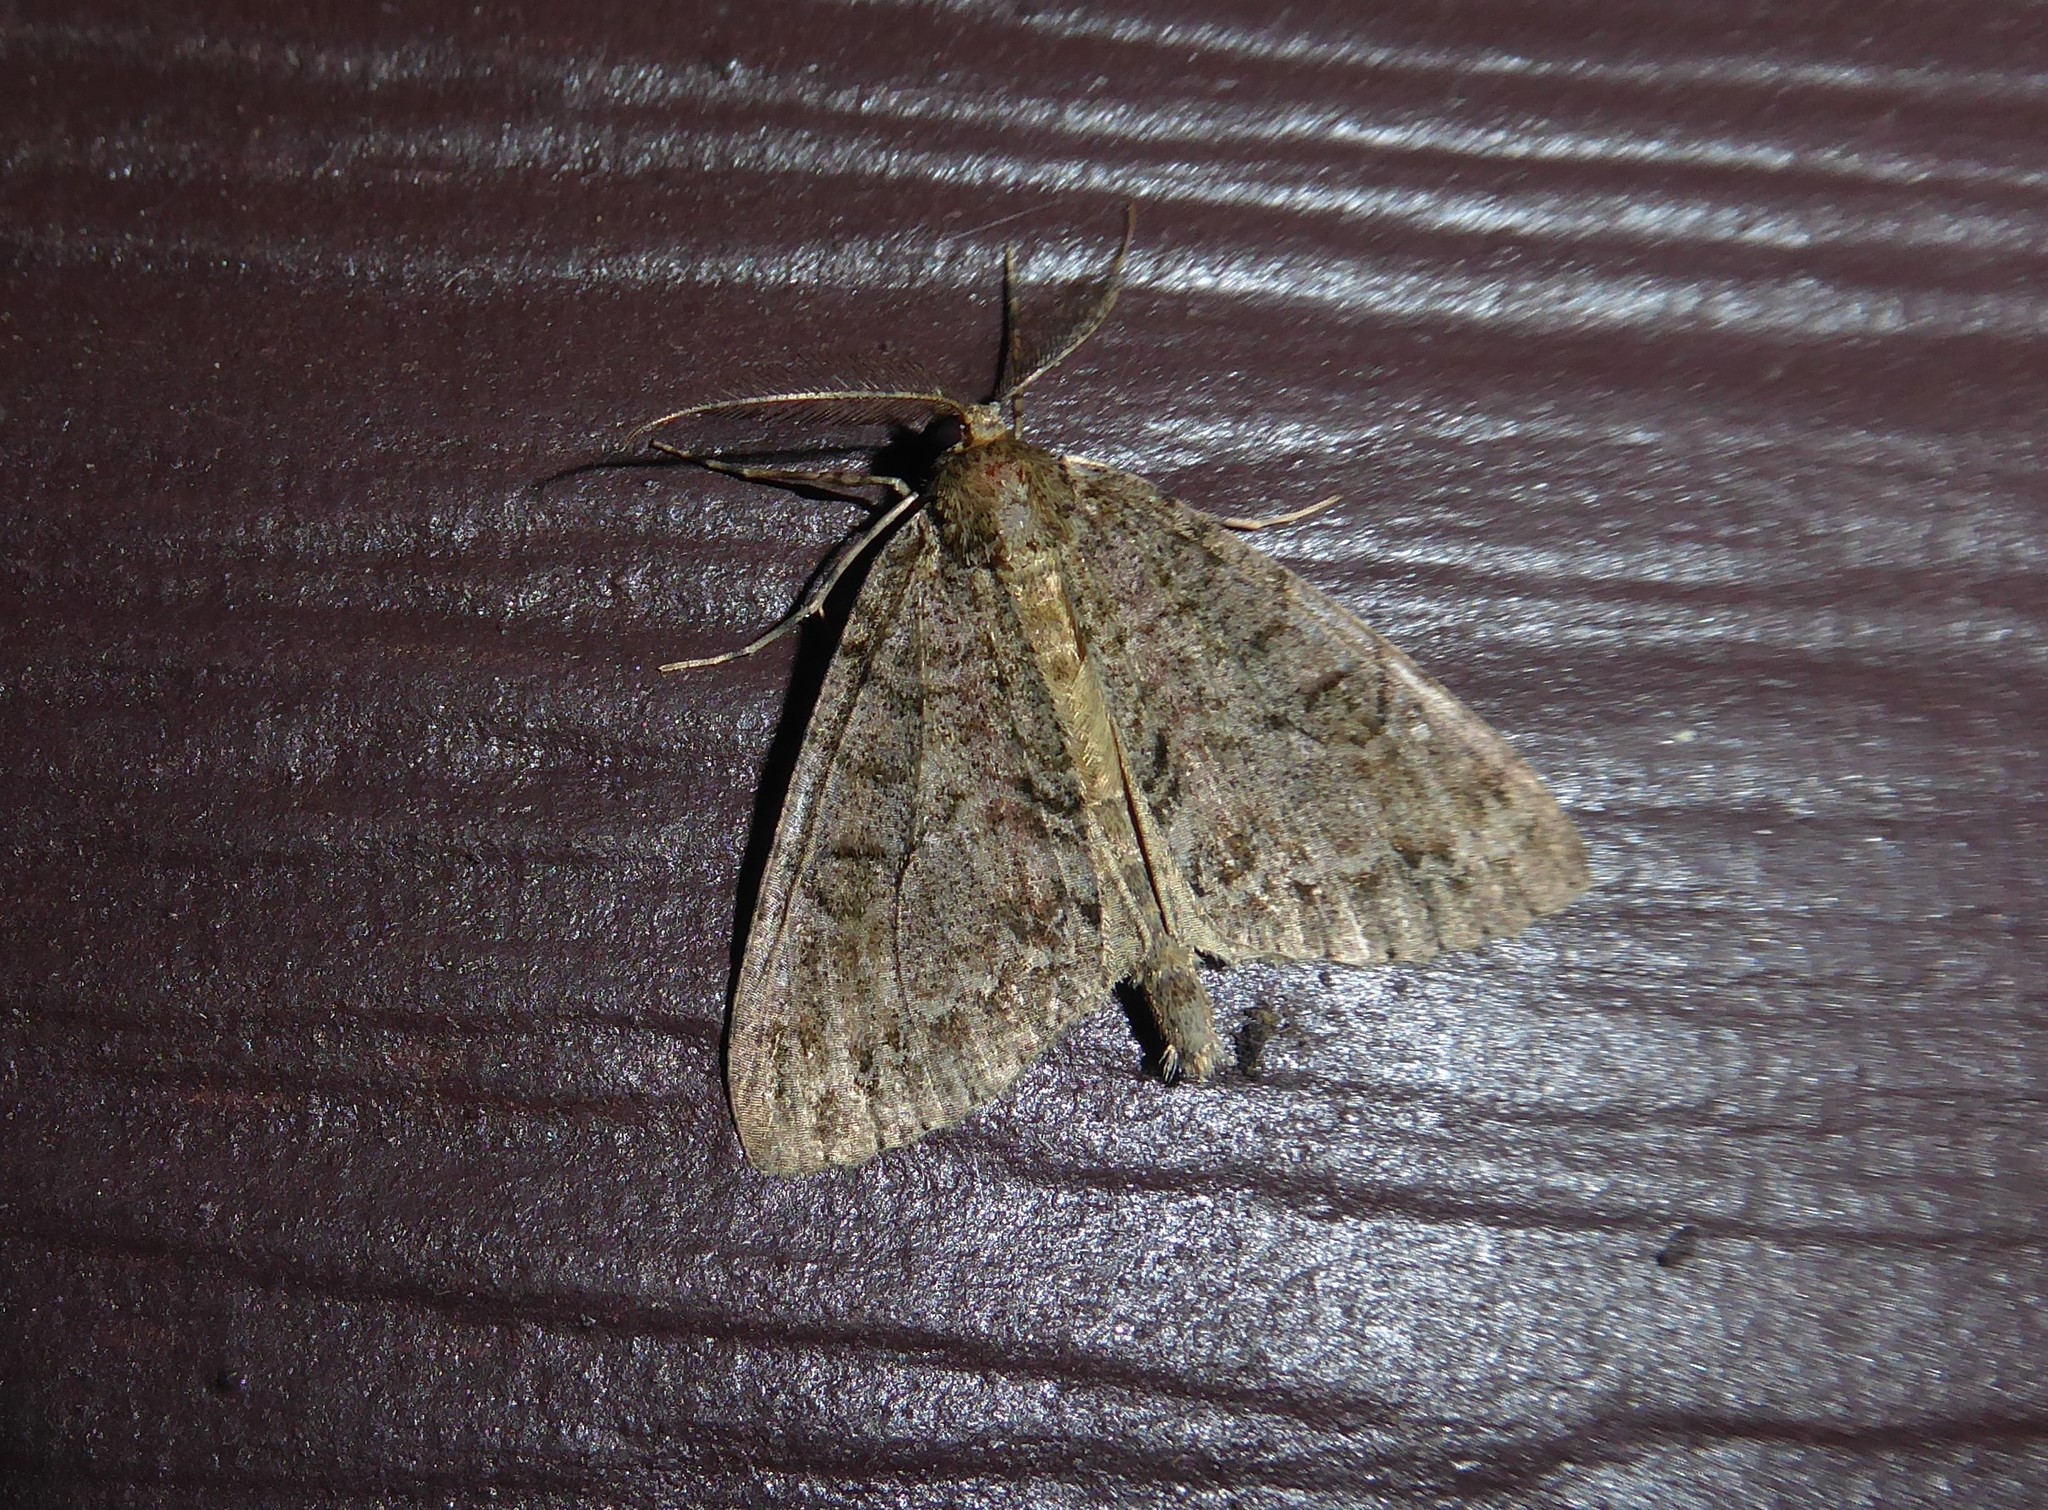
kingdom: Animalia
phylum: Arthropoda
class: Insecta
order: Lepidoptera
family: Geometridae
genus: Pseudocoremia
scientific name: Pseudocoremia suavis
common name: Common forest looper
